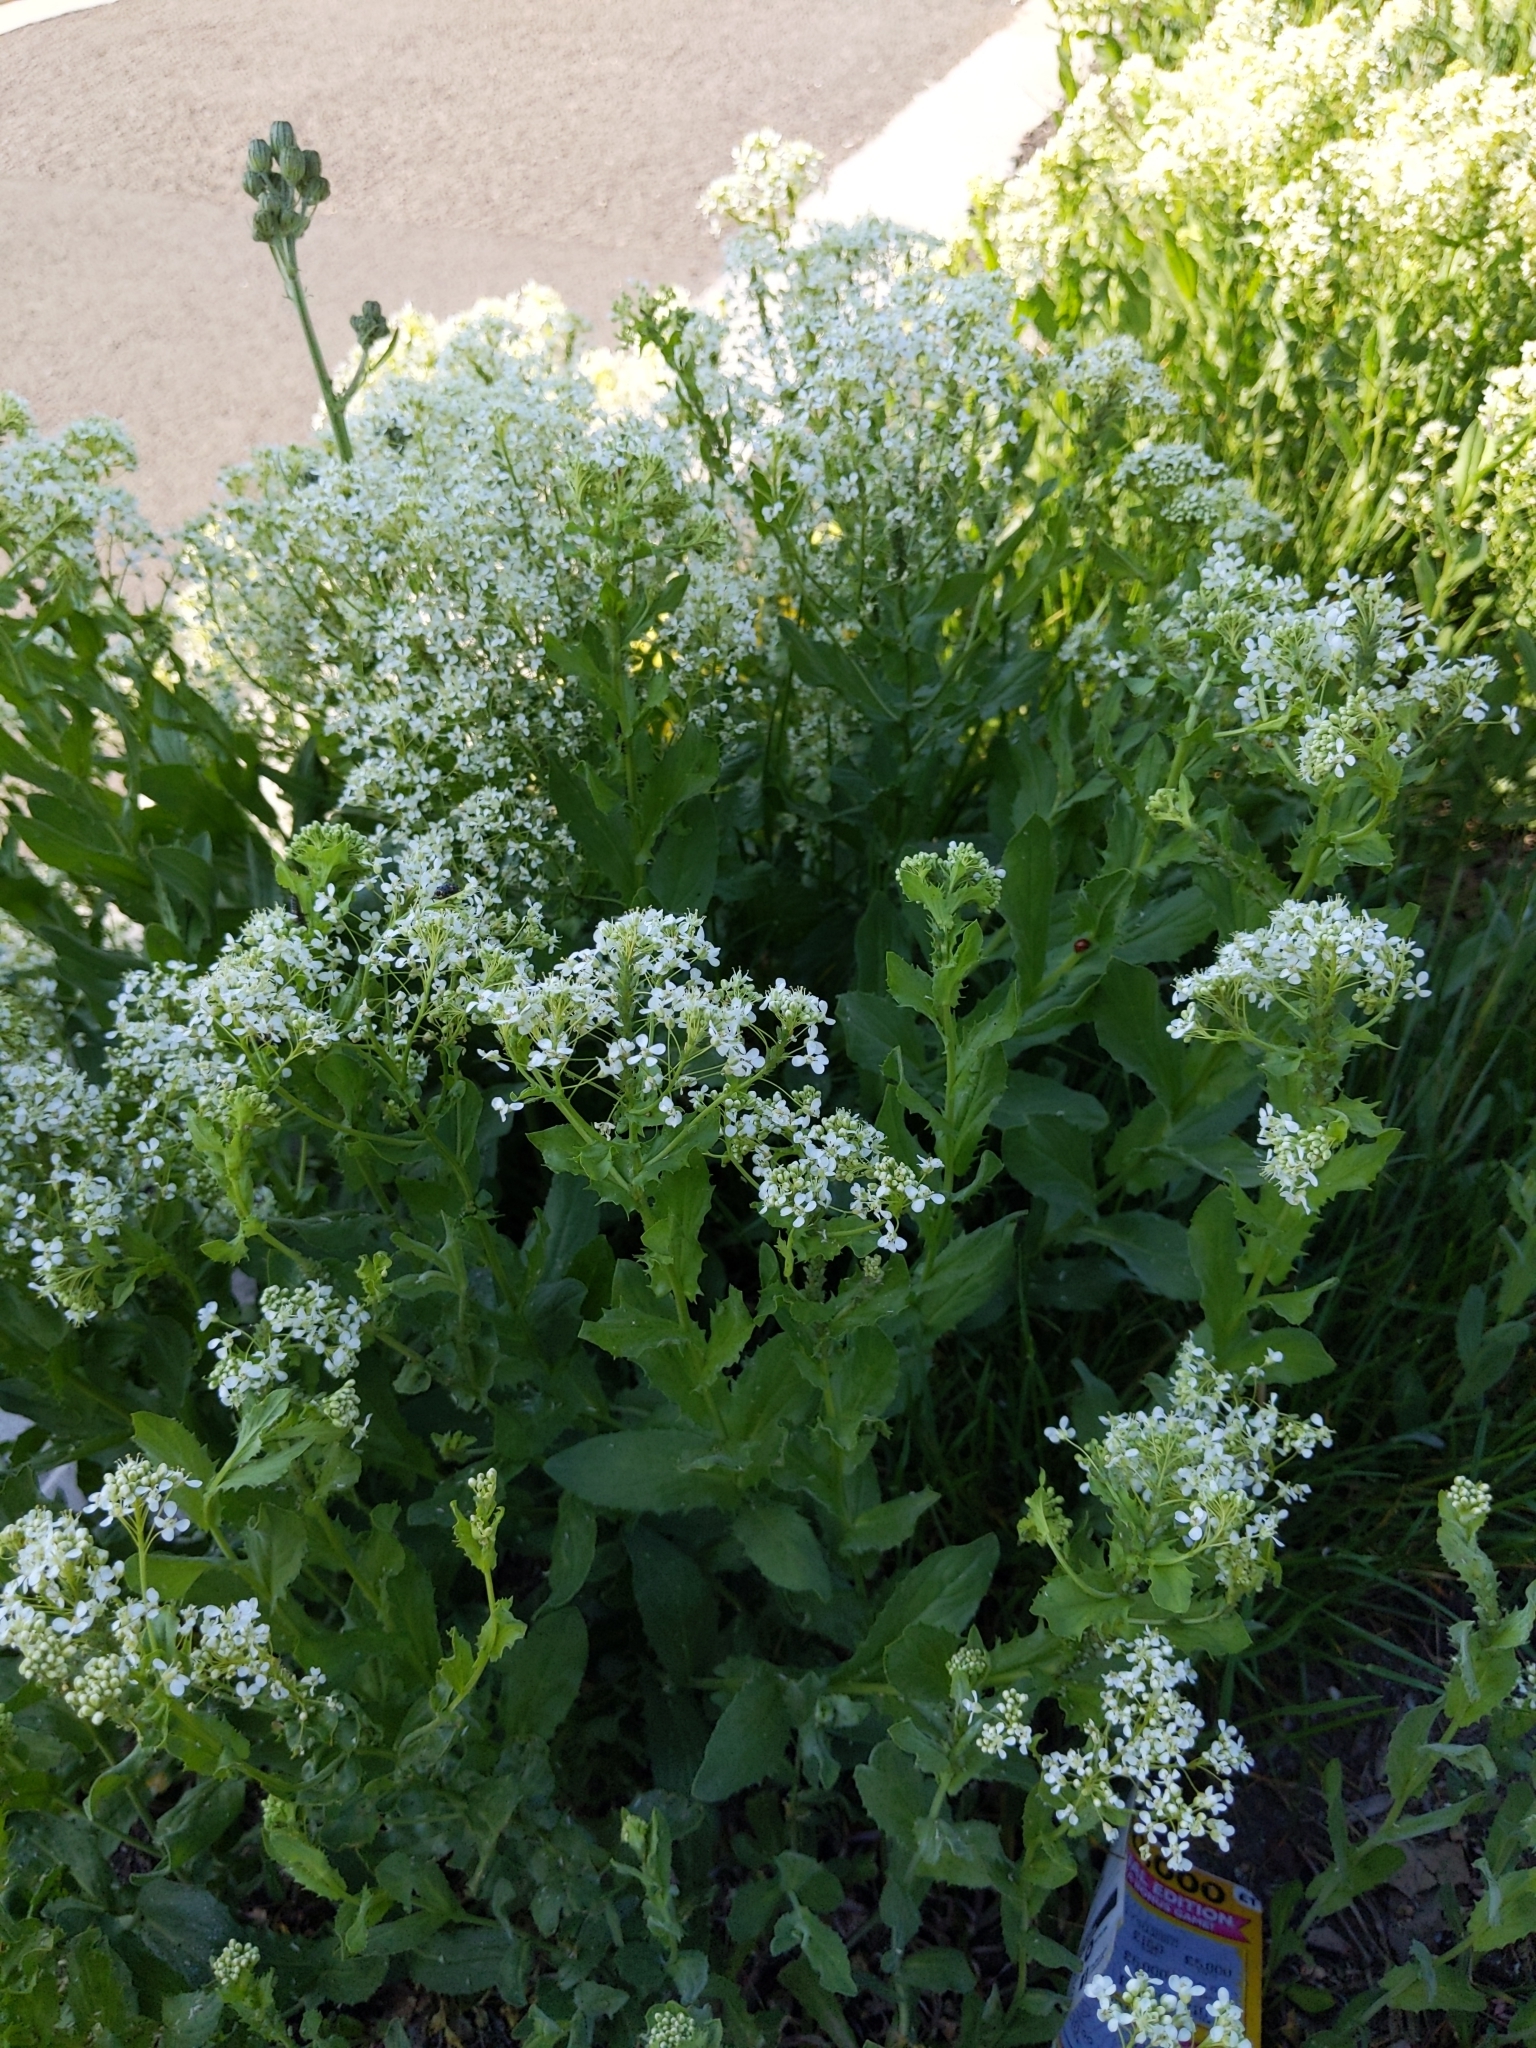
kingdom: Plantae
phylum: Tracheophyta
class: Magnoliopsida
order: Brassicales
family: Brassicaceae
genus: Lepidium
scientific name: Lepidium draba
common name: Hoary cress
